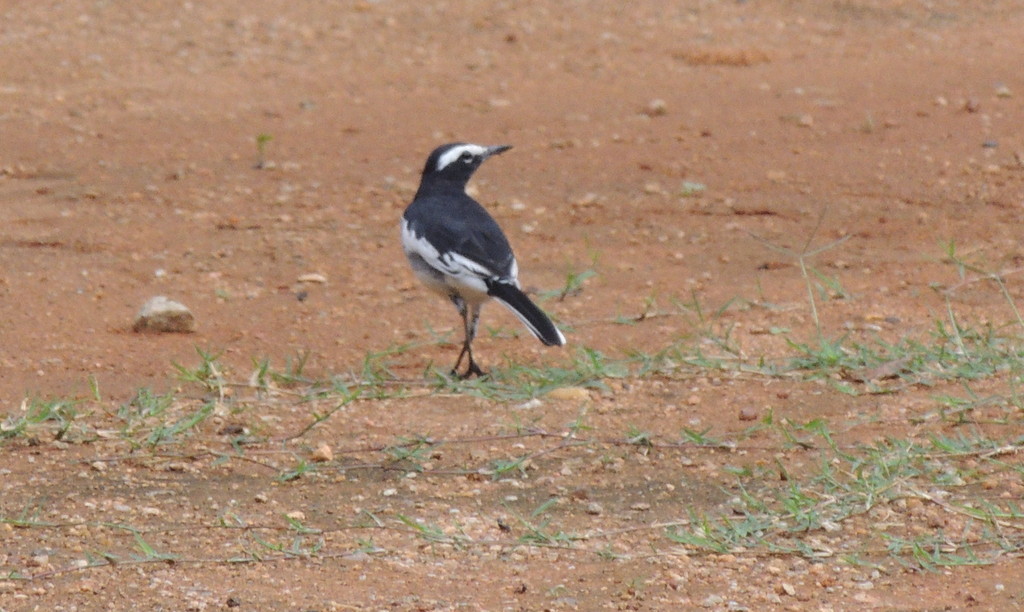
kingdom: Animalia
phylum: Chordata
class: Aves
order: Passeriformes
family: Motacillidae
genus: Motacilla
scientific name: Motacilla maderaspatensis
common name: White-browed wagtail
